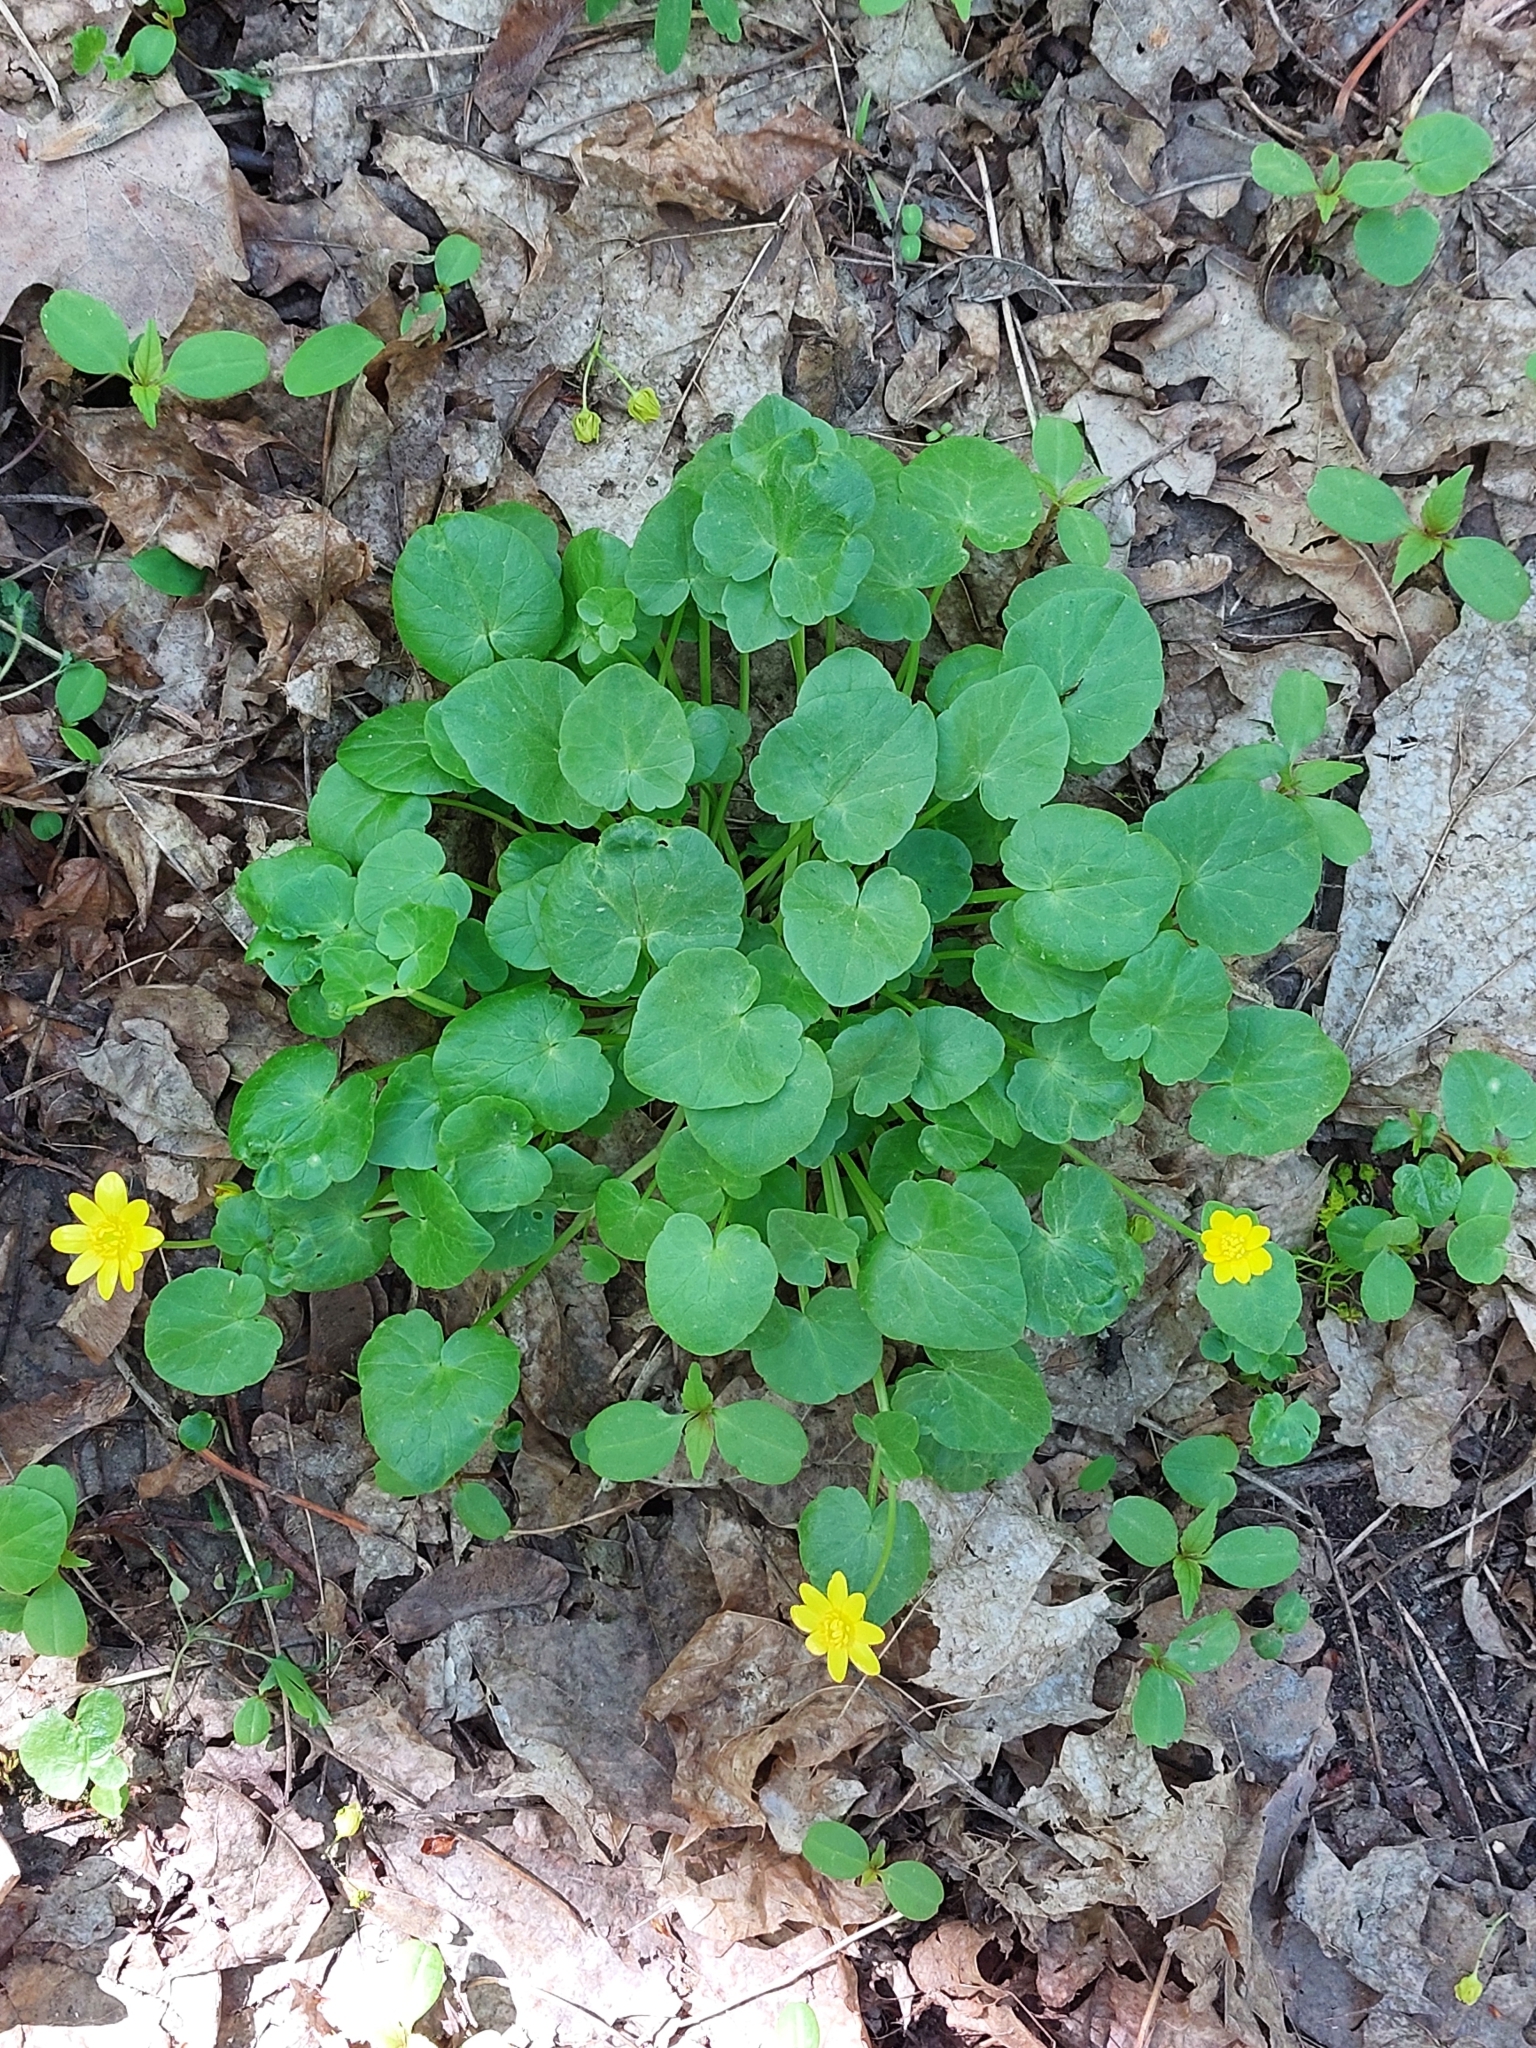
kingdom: Plantae
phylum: Tracheophyta
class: Magnoliopsida
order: Ranunculales
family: Ranunculaceae
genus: Ficaria
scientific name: Ficaria verna
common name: Lesser celandine
